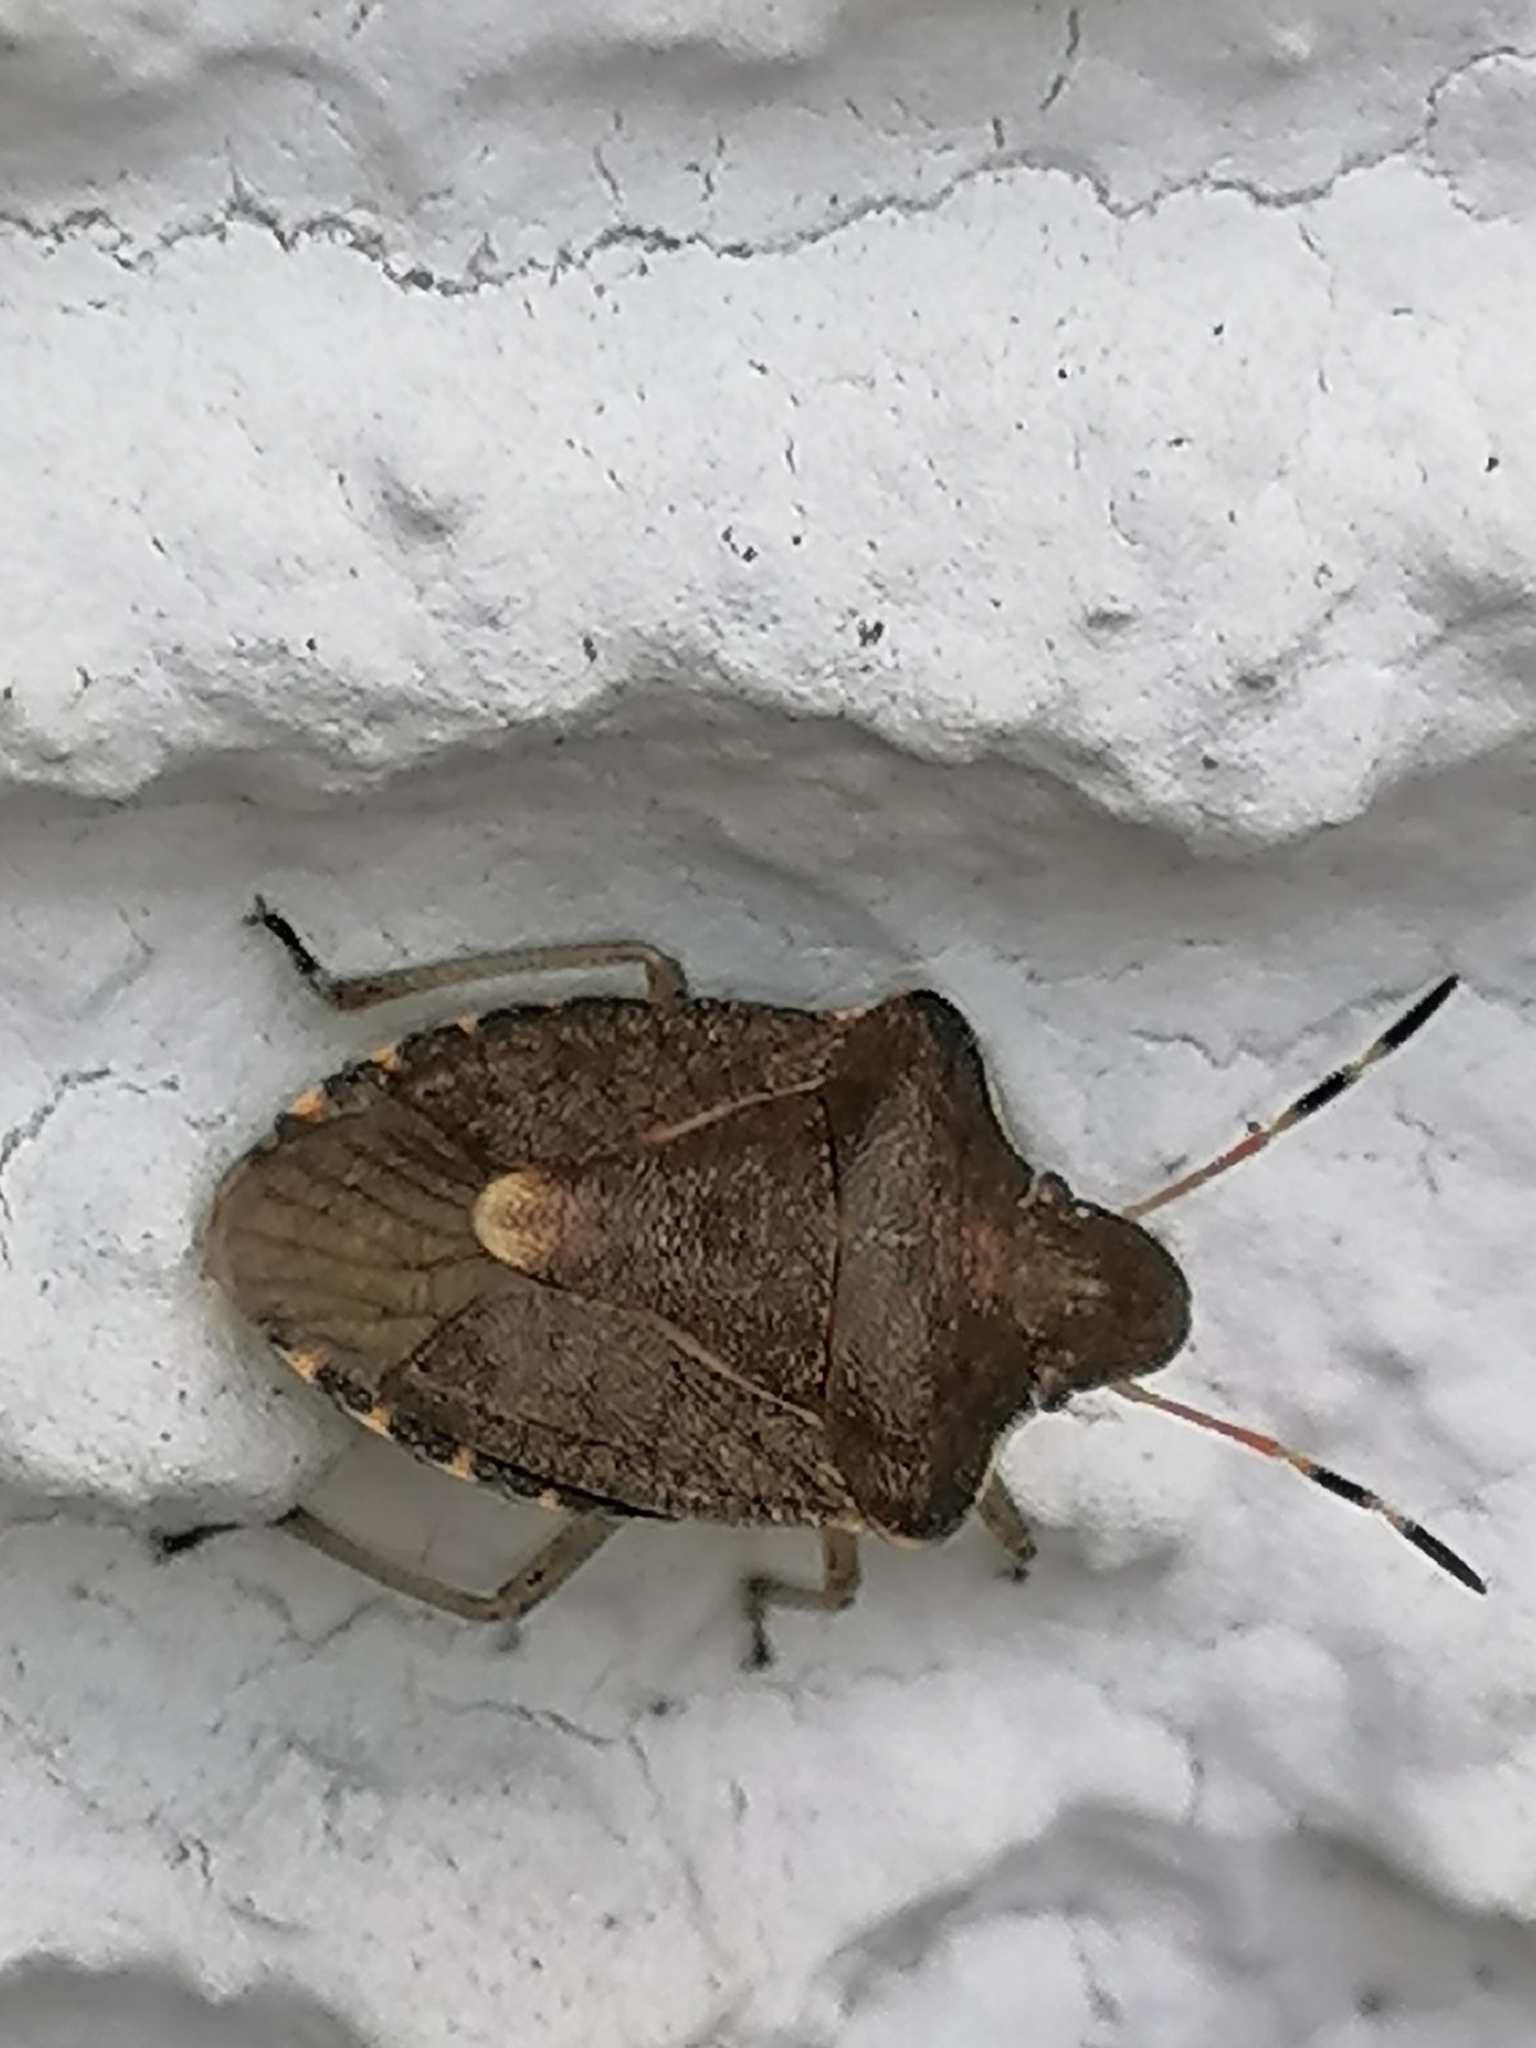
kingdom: Animalia
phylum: Arthropoda
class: Insecta
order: Hemiptera
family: Pentatomidae
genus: Holcostethus
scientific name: Holcostethus strictus
